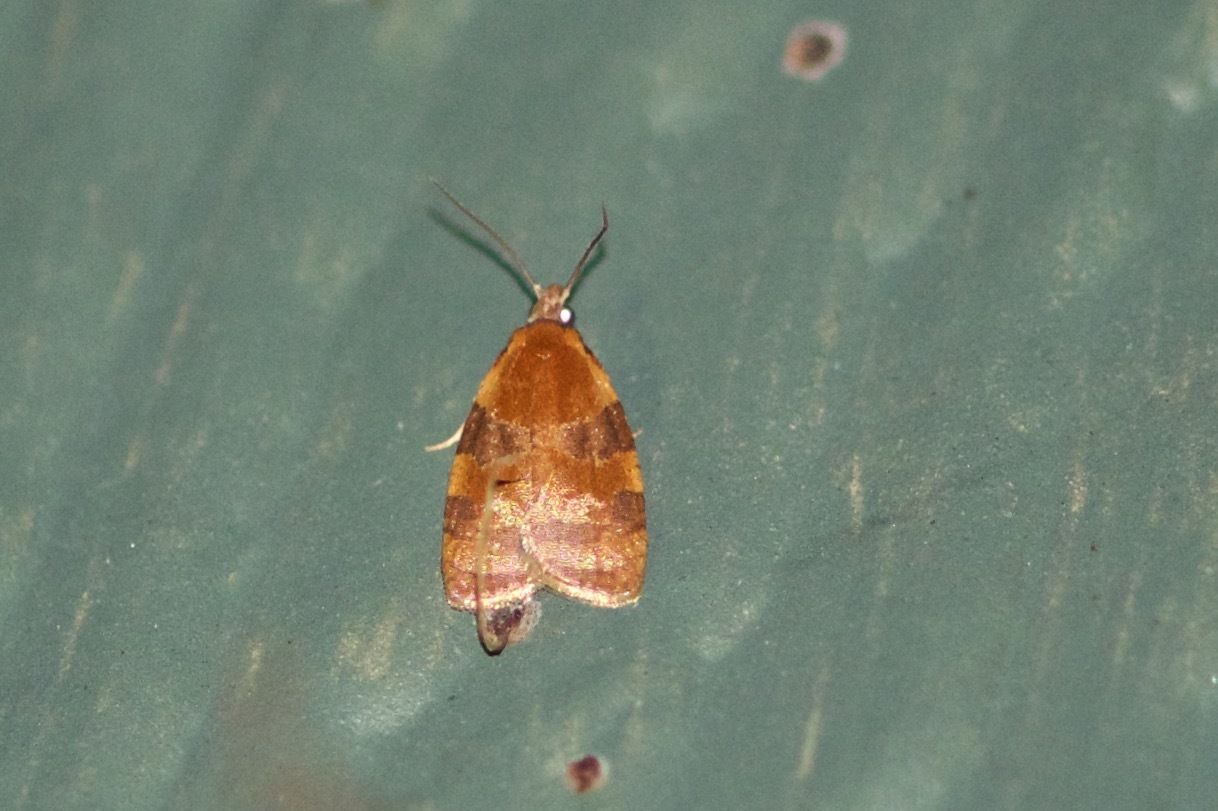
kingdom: Animalia
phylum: Arthropoda
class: Insecta
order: Lepidoptera
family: Tortricidae
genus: Cenopis
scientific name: Cenopis diluticostana
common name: Spring dead-leaf roller moth
